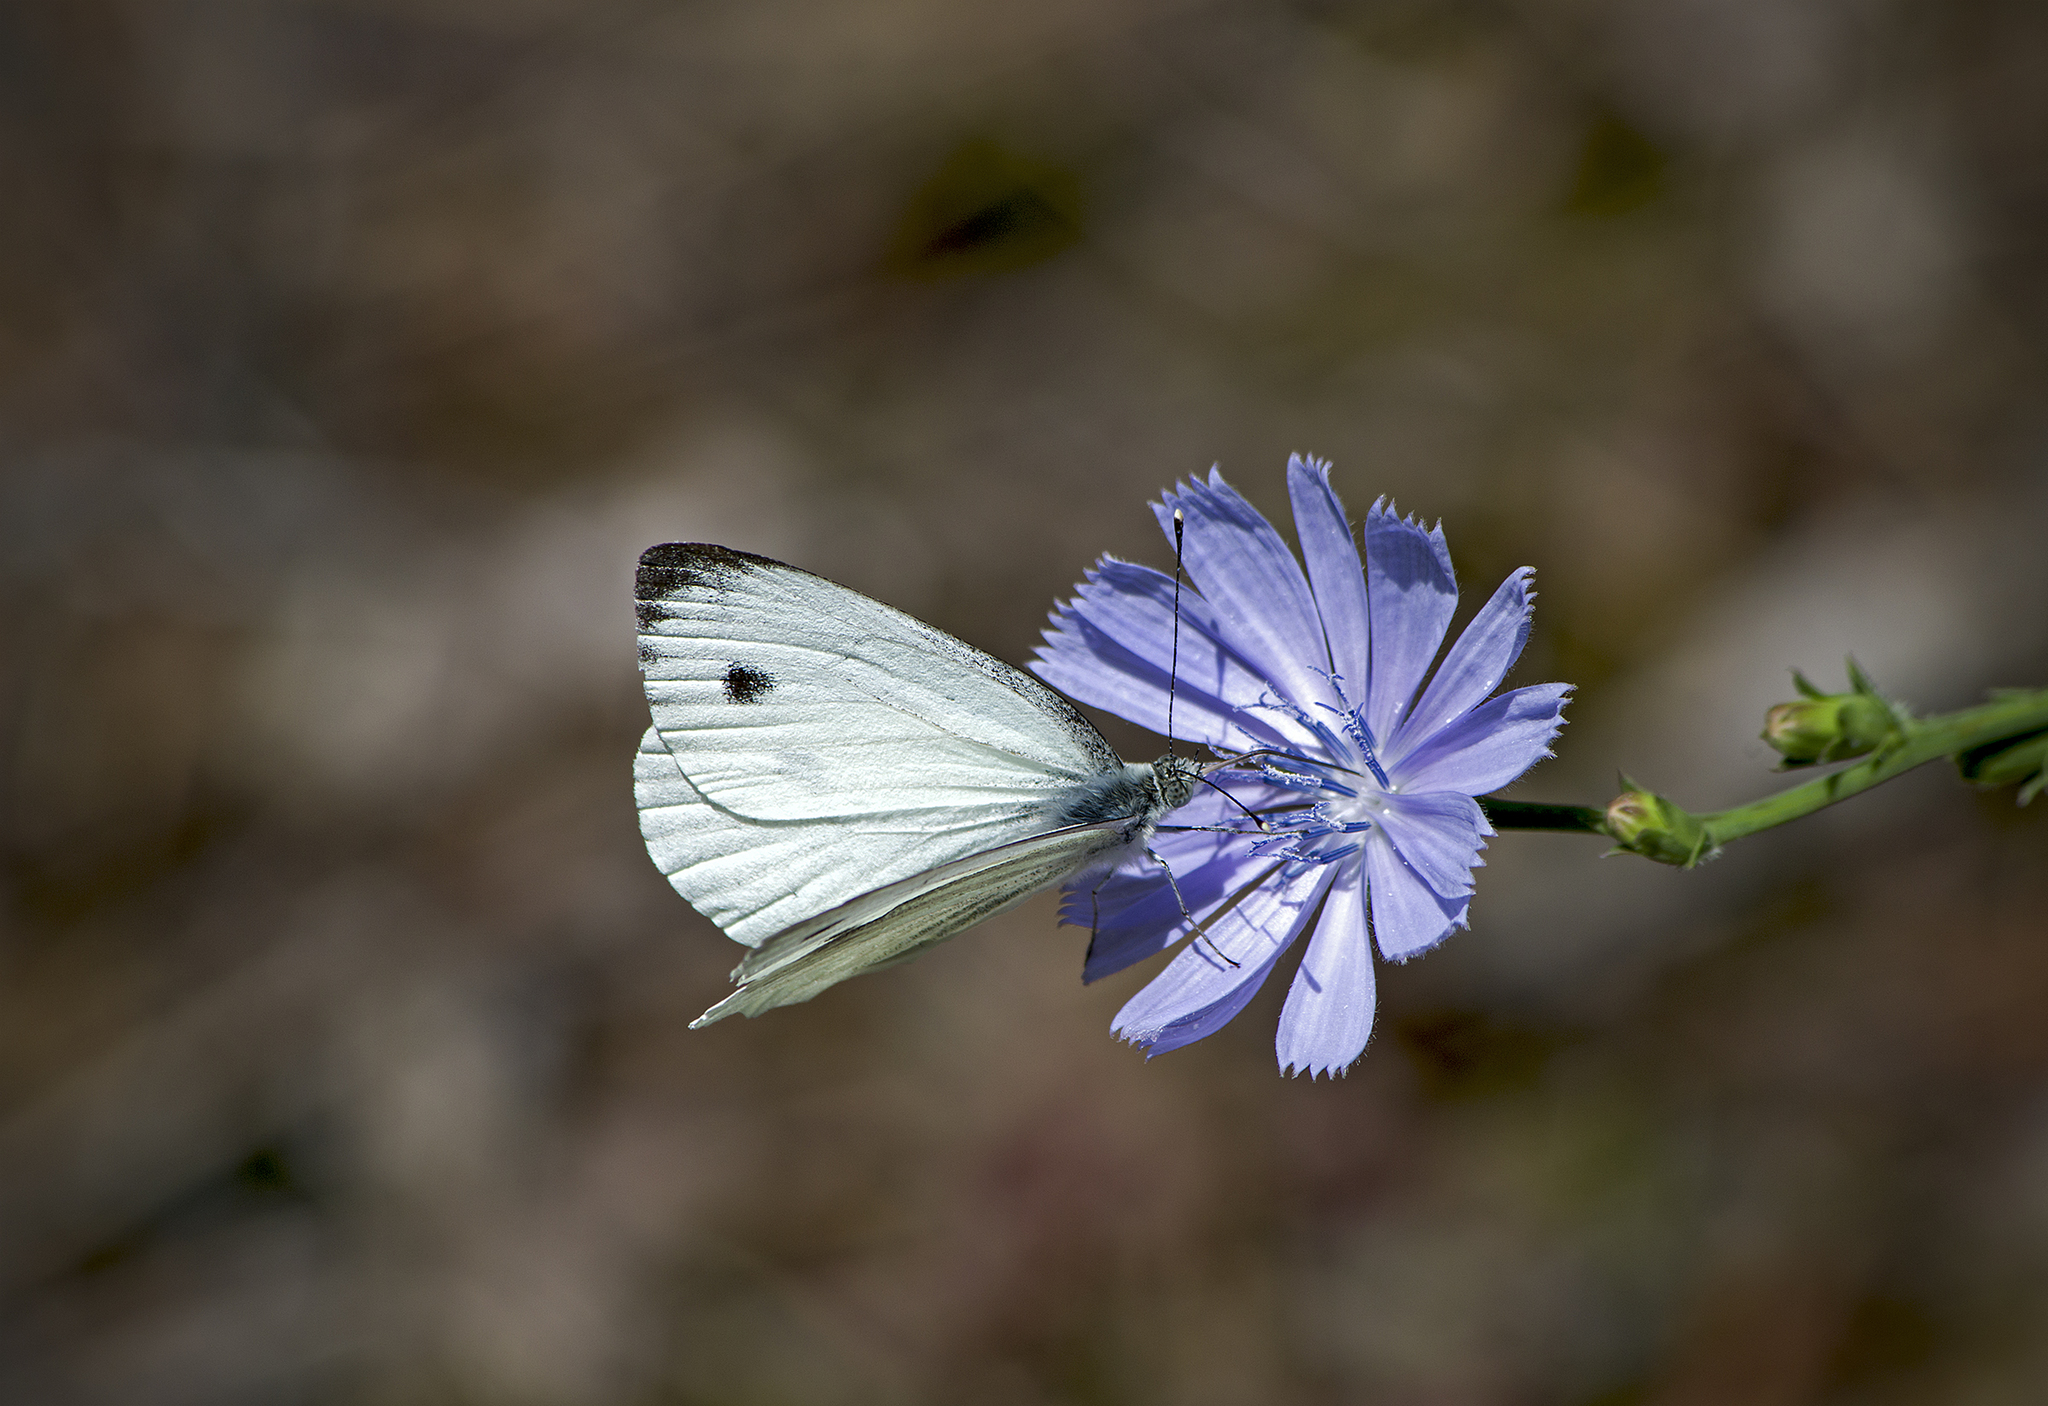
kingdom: Animalia
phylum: Arthropoda
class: Insecta
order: Lepidoptera
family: Pieridae
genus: Pieris
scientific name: Pieris napi
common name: Green-veined white
